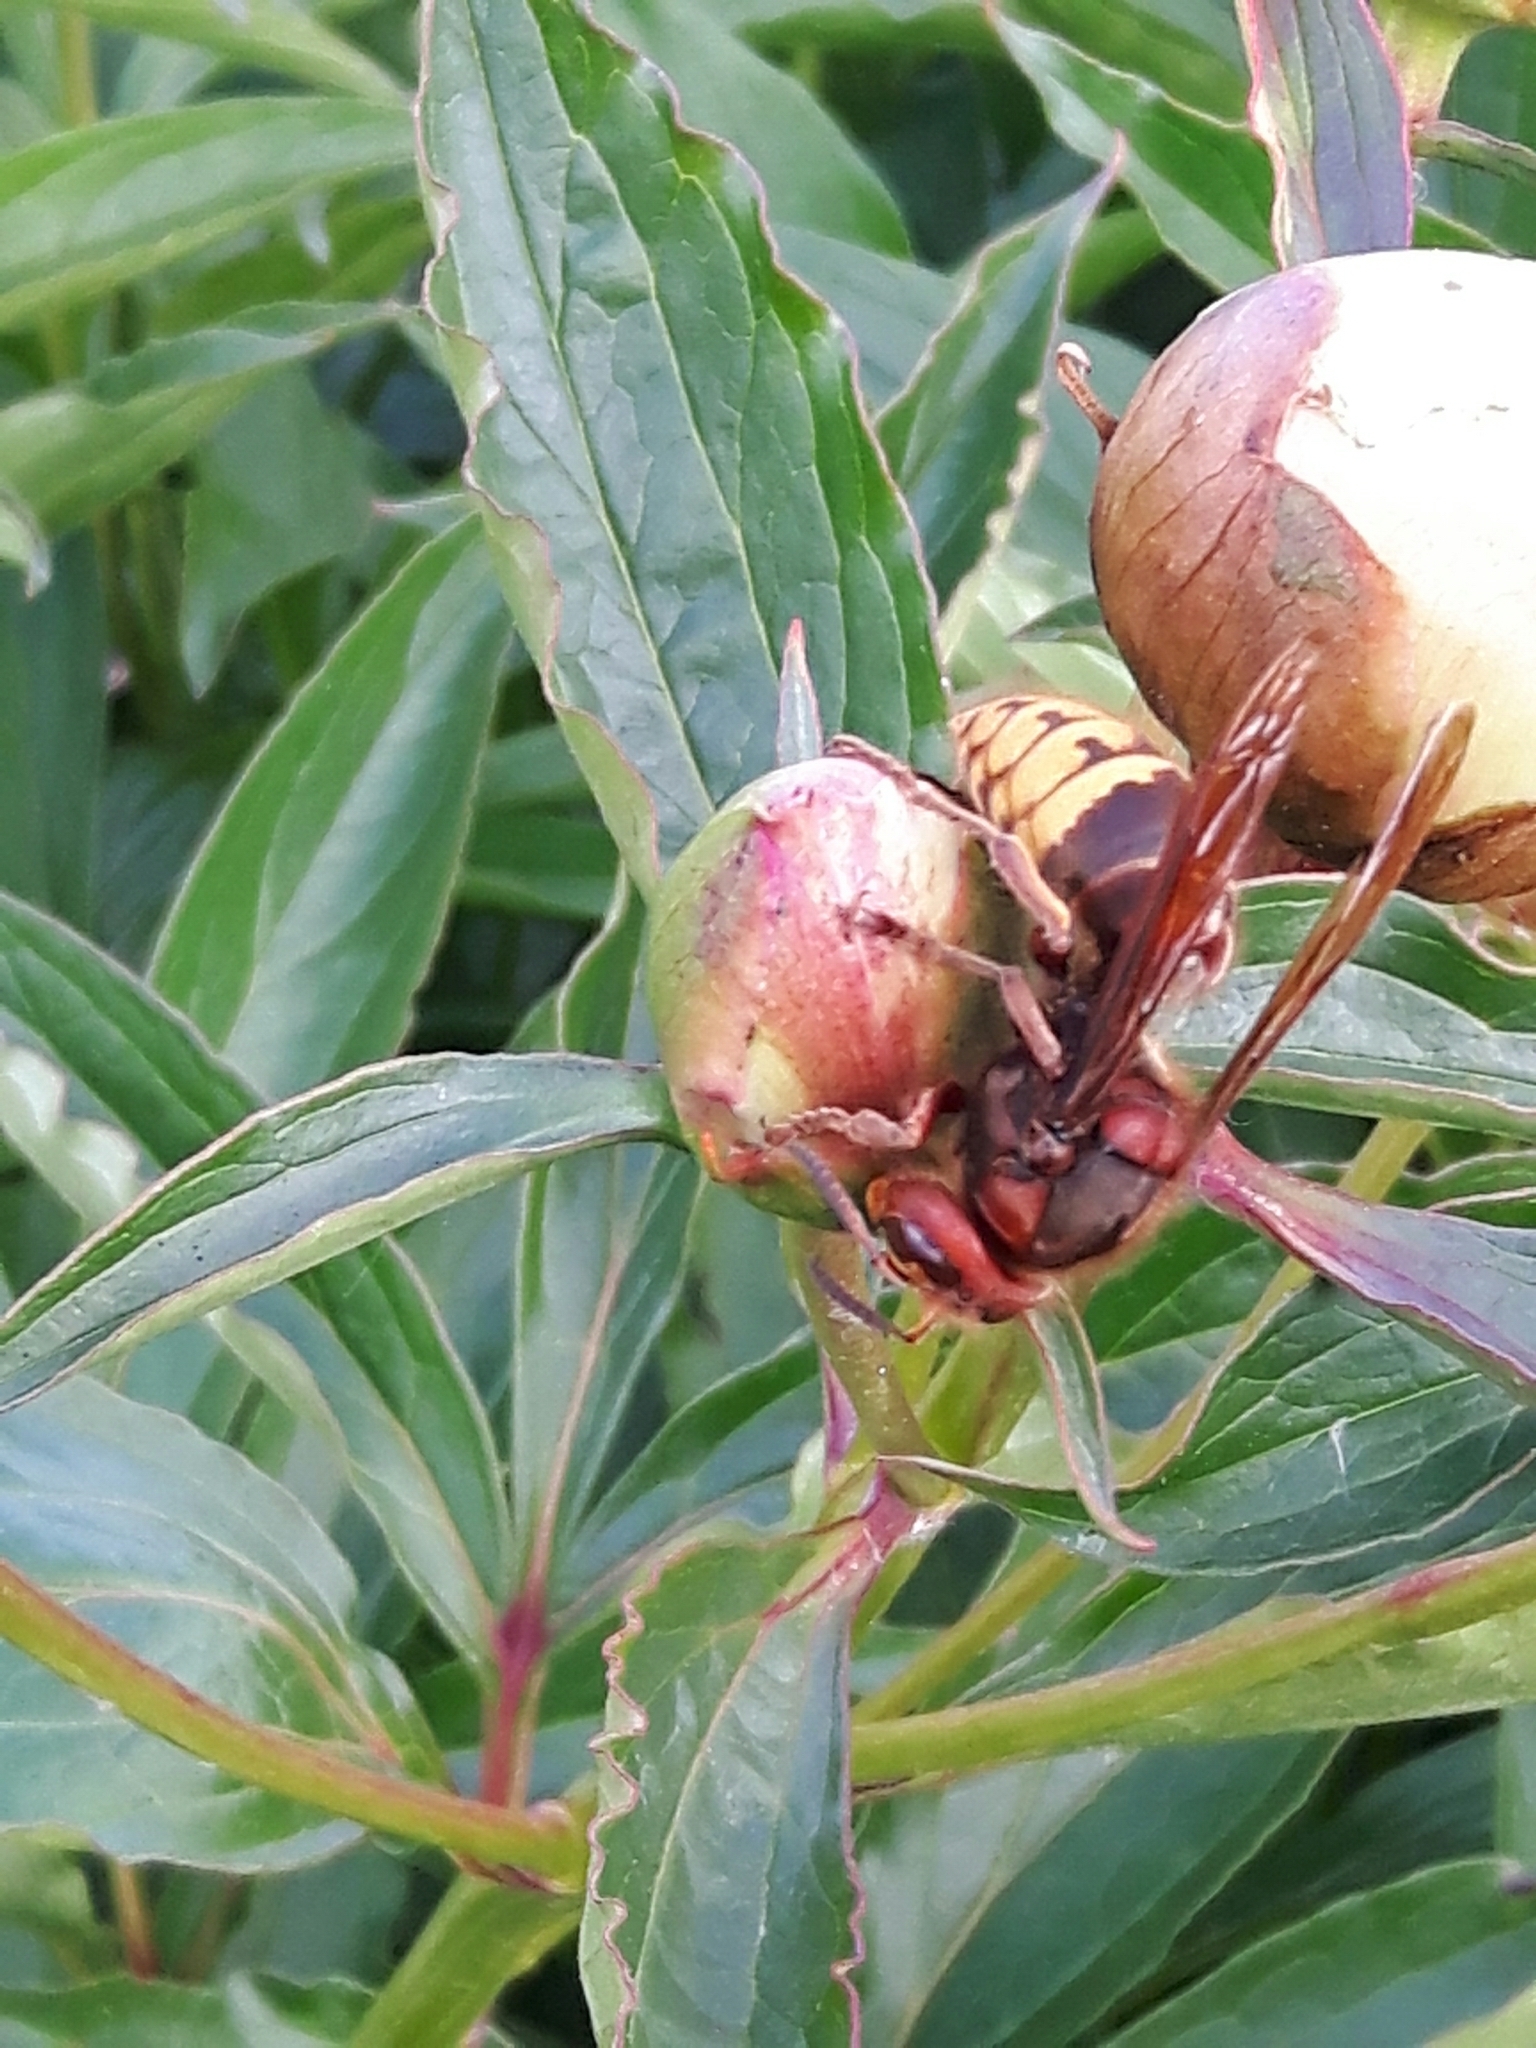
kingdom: Animalia
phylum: Arthropoda
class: Insecta
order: Hymenoptera
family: Vespidae
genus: Vespa
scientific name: Vespa crabro
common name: Hornet
